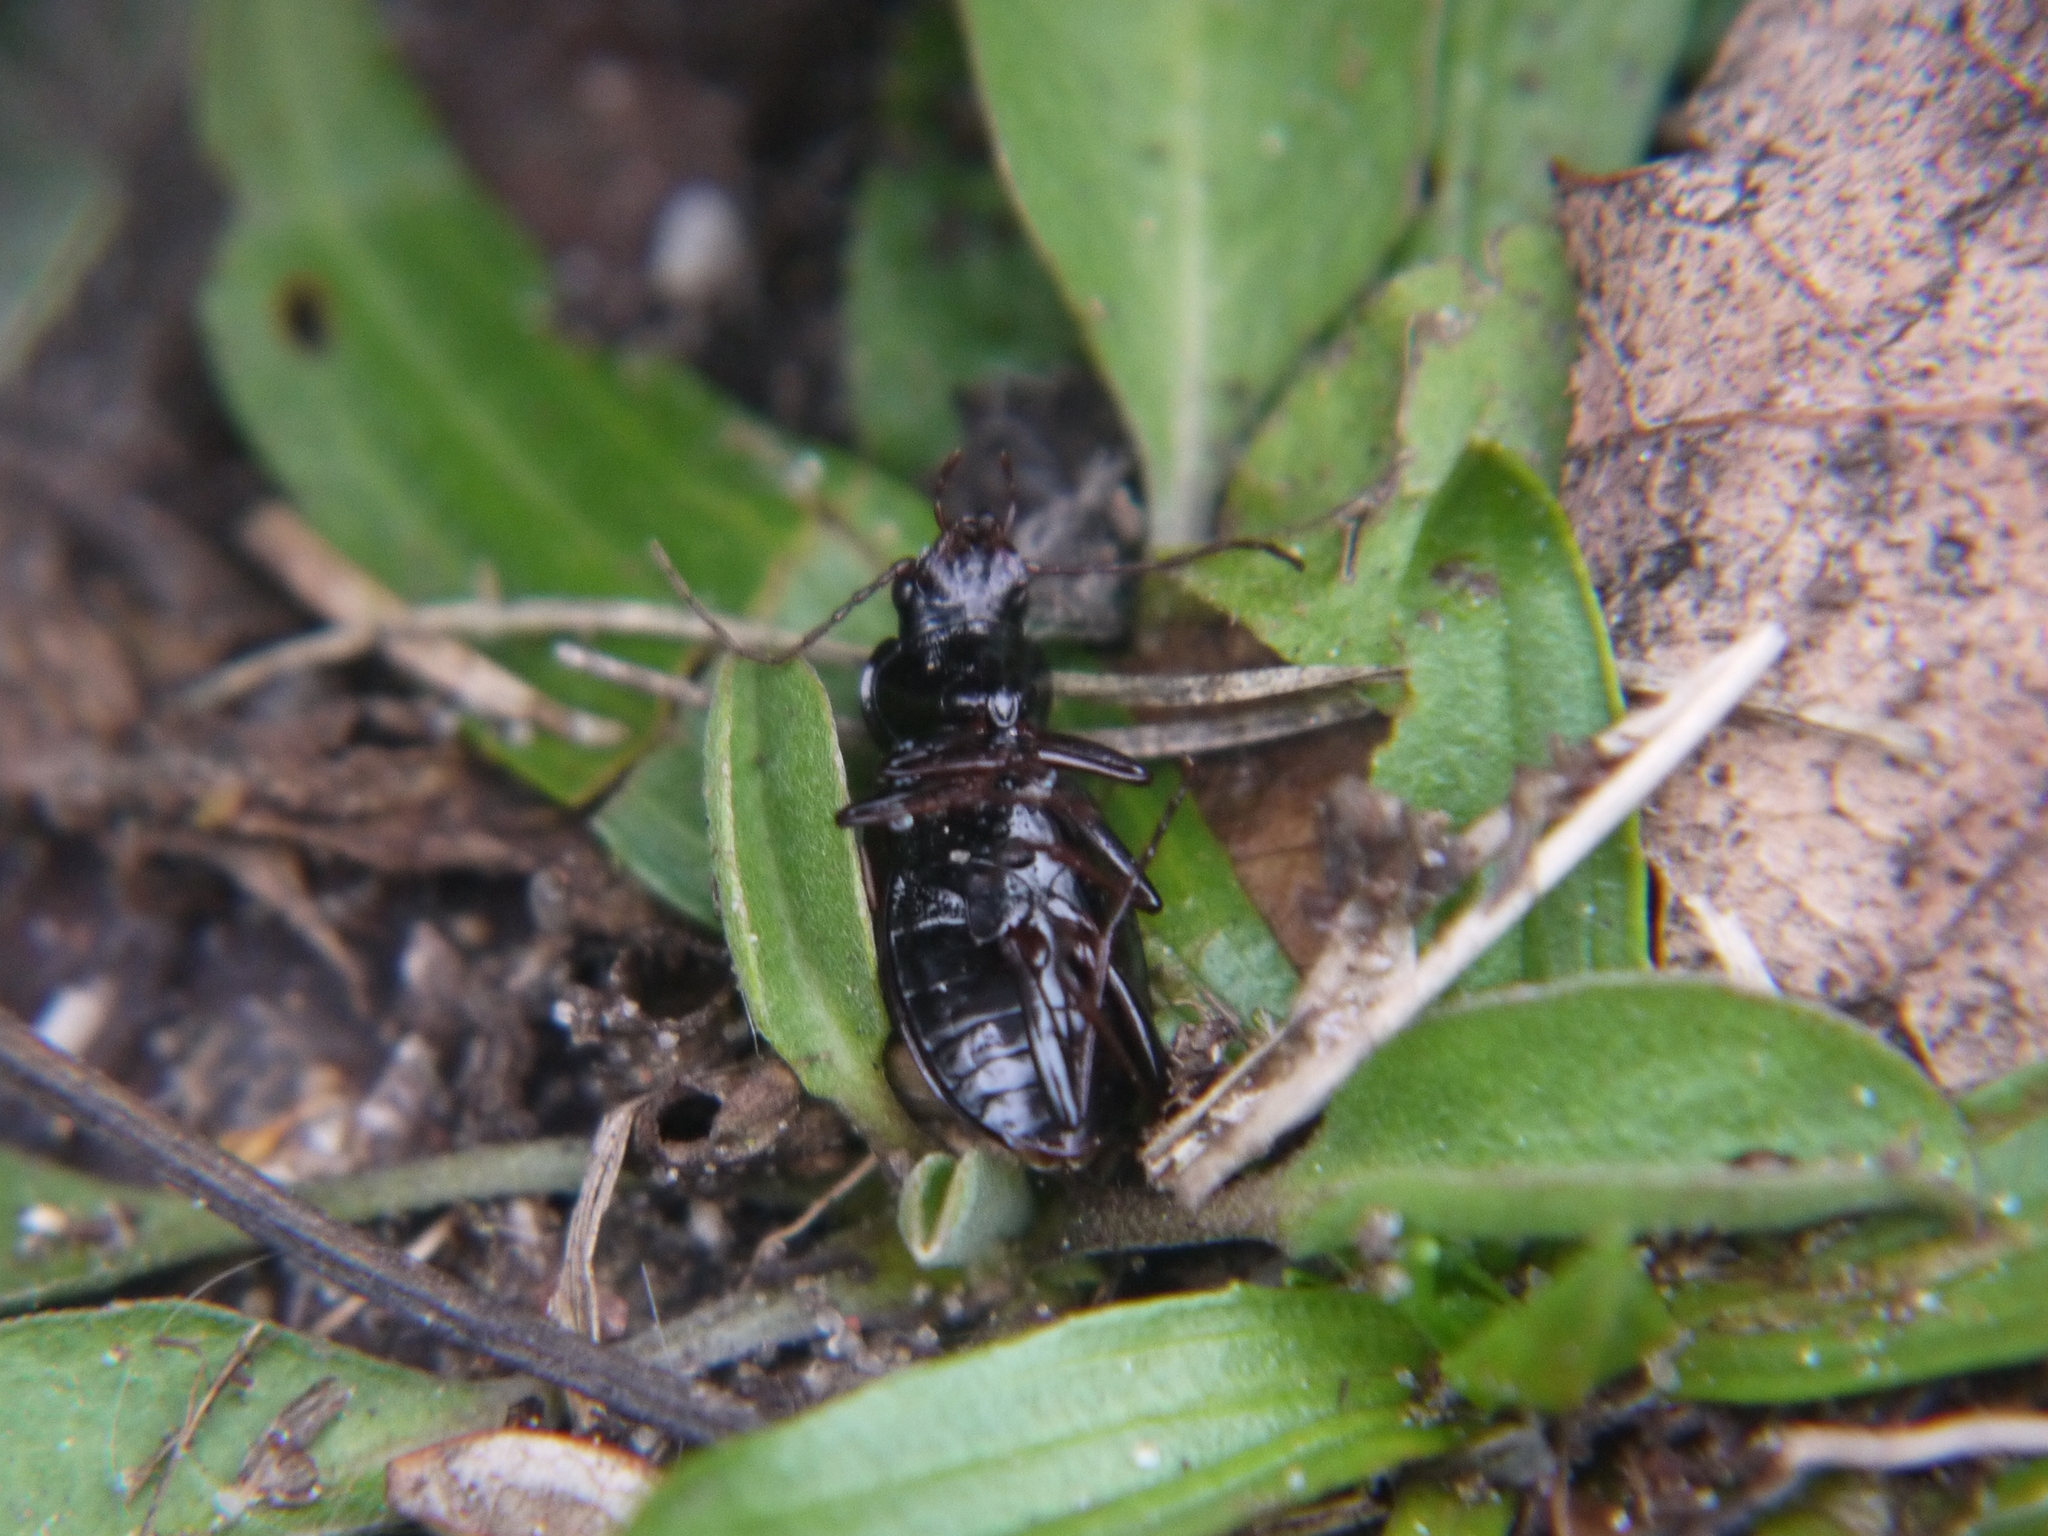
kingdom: Animalia
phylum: Arthropoda
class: Insecta
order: Coleoptera
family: Carabidae
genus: Nebria
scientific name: Nebria brevicollis
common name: Short-necked gazelle beetle
